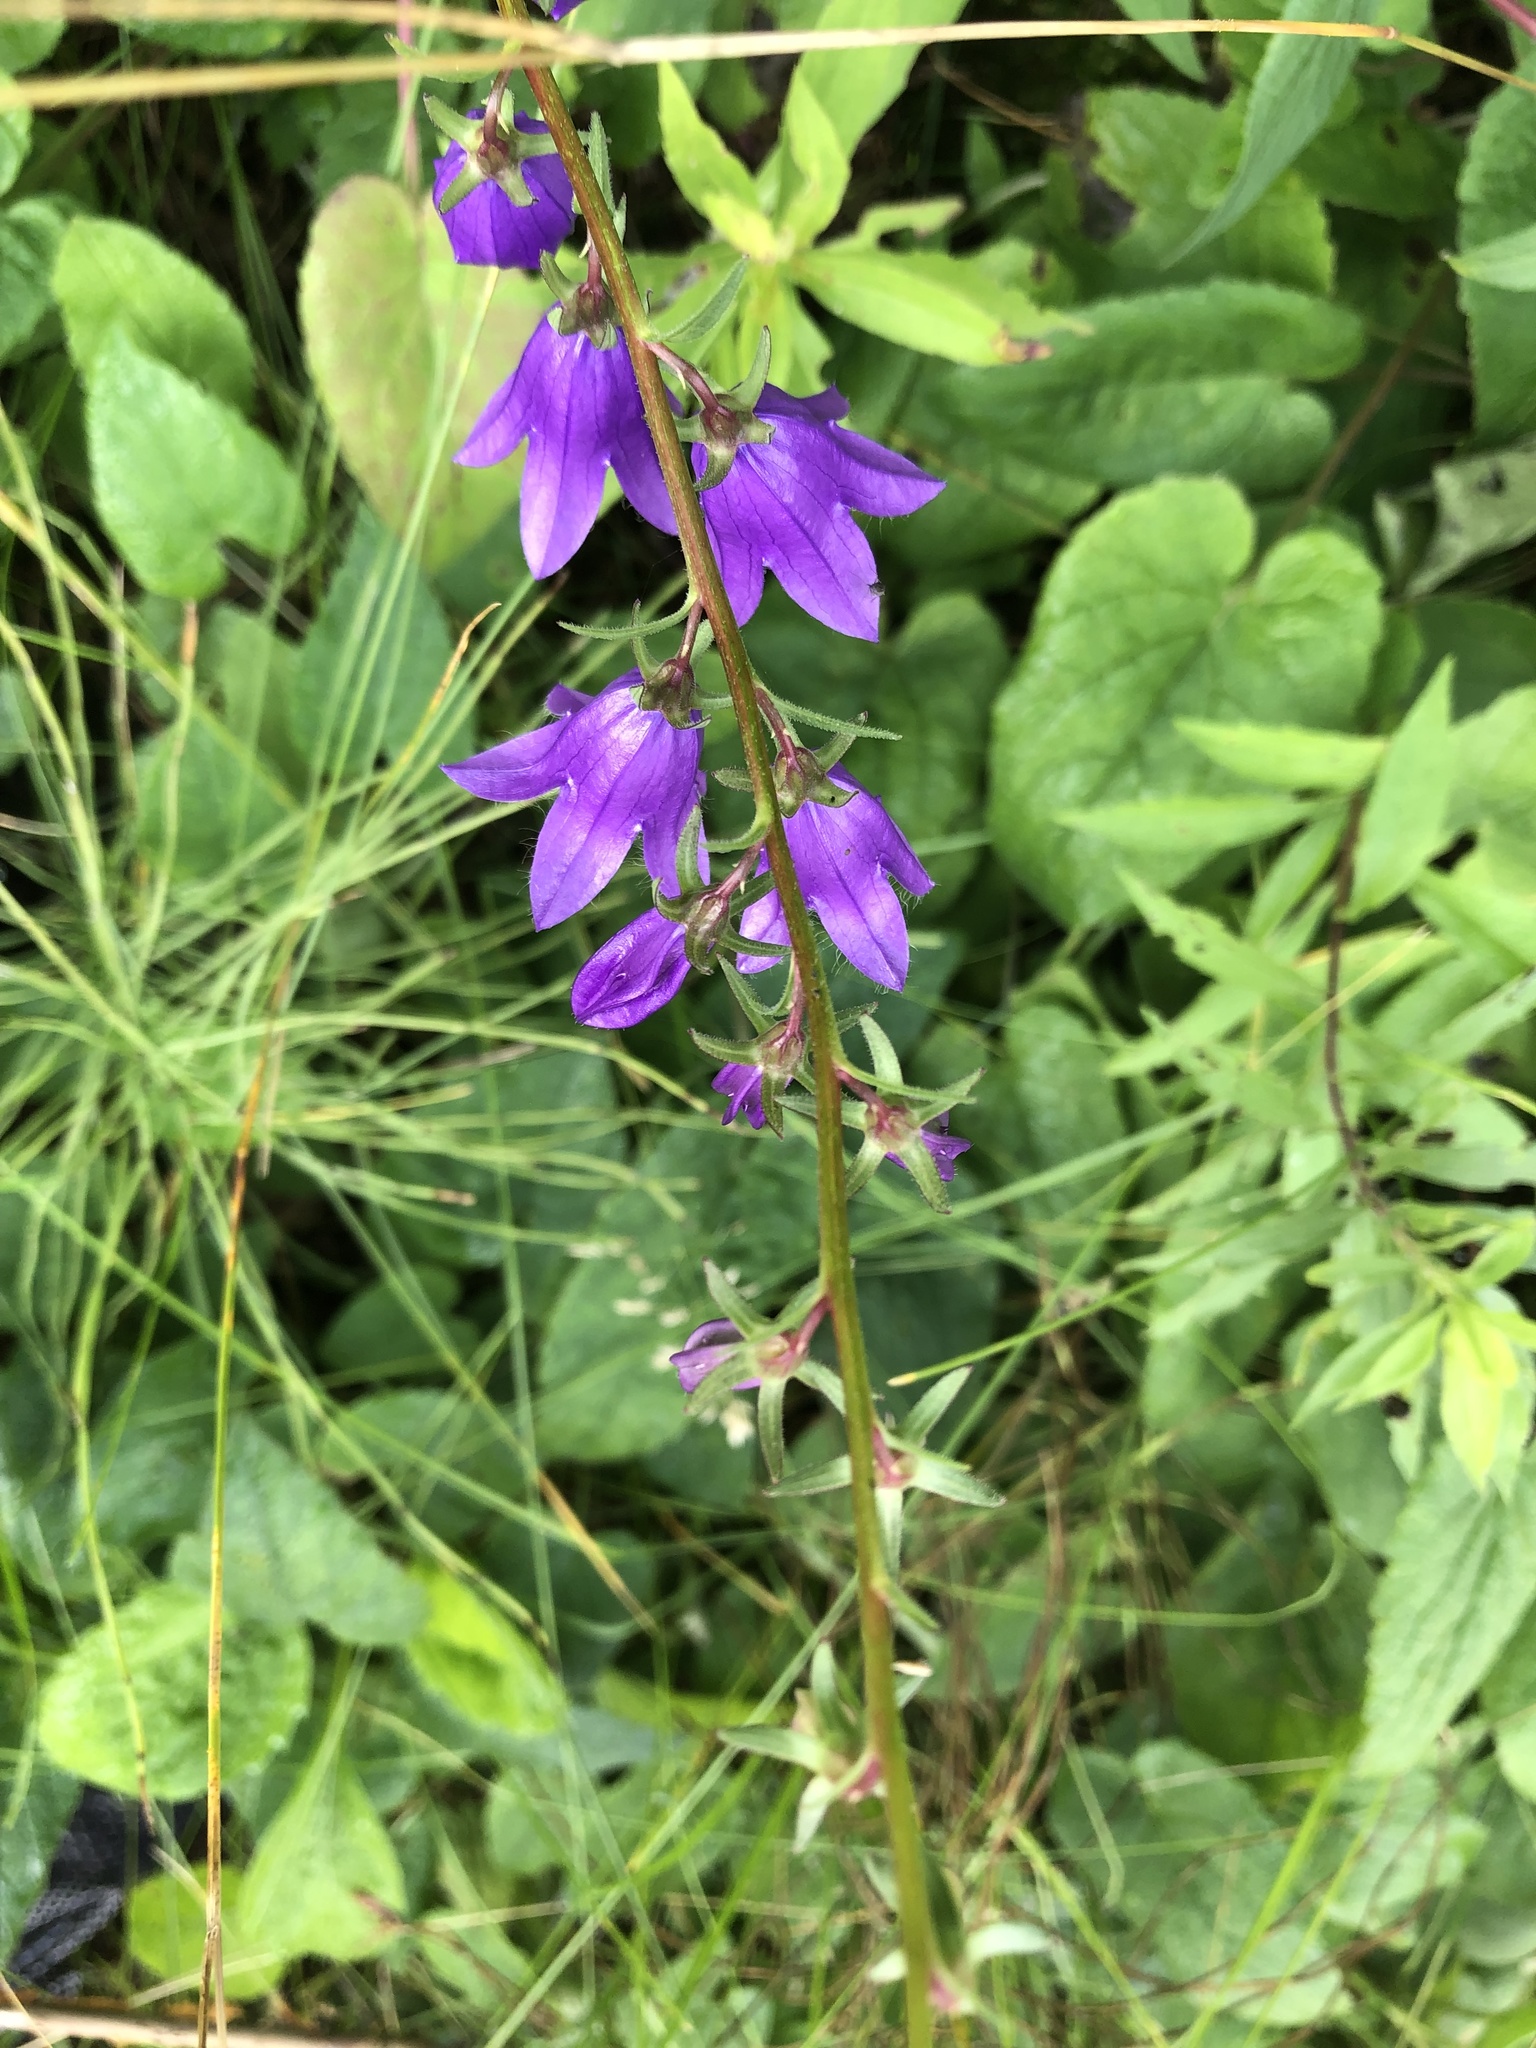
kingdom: Plantae
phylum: Tracheophyta
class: Magnoliopsida
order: Asterales
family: Campanulaceae
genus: Campanula
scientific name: Campanula rapunculoides
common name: Creeping bellflower
